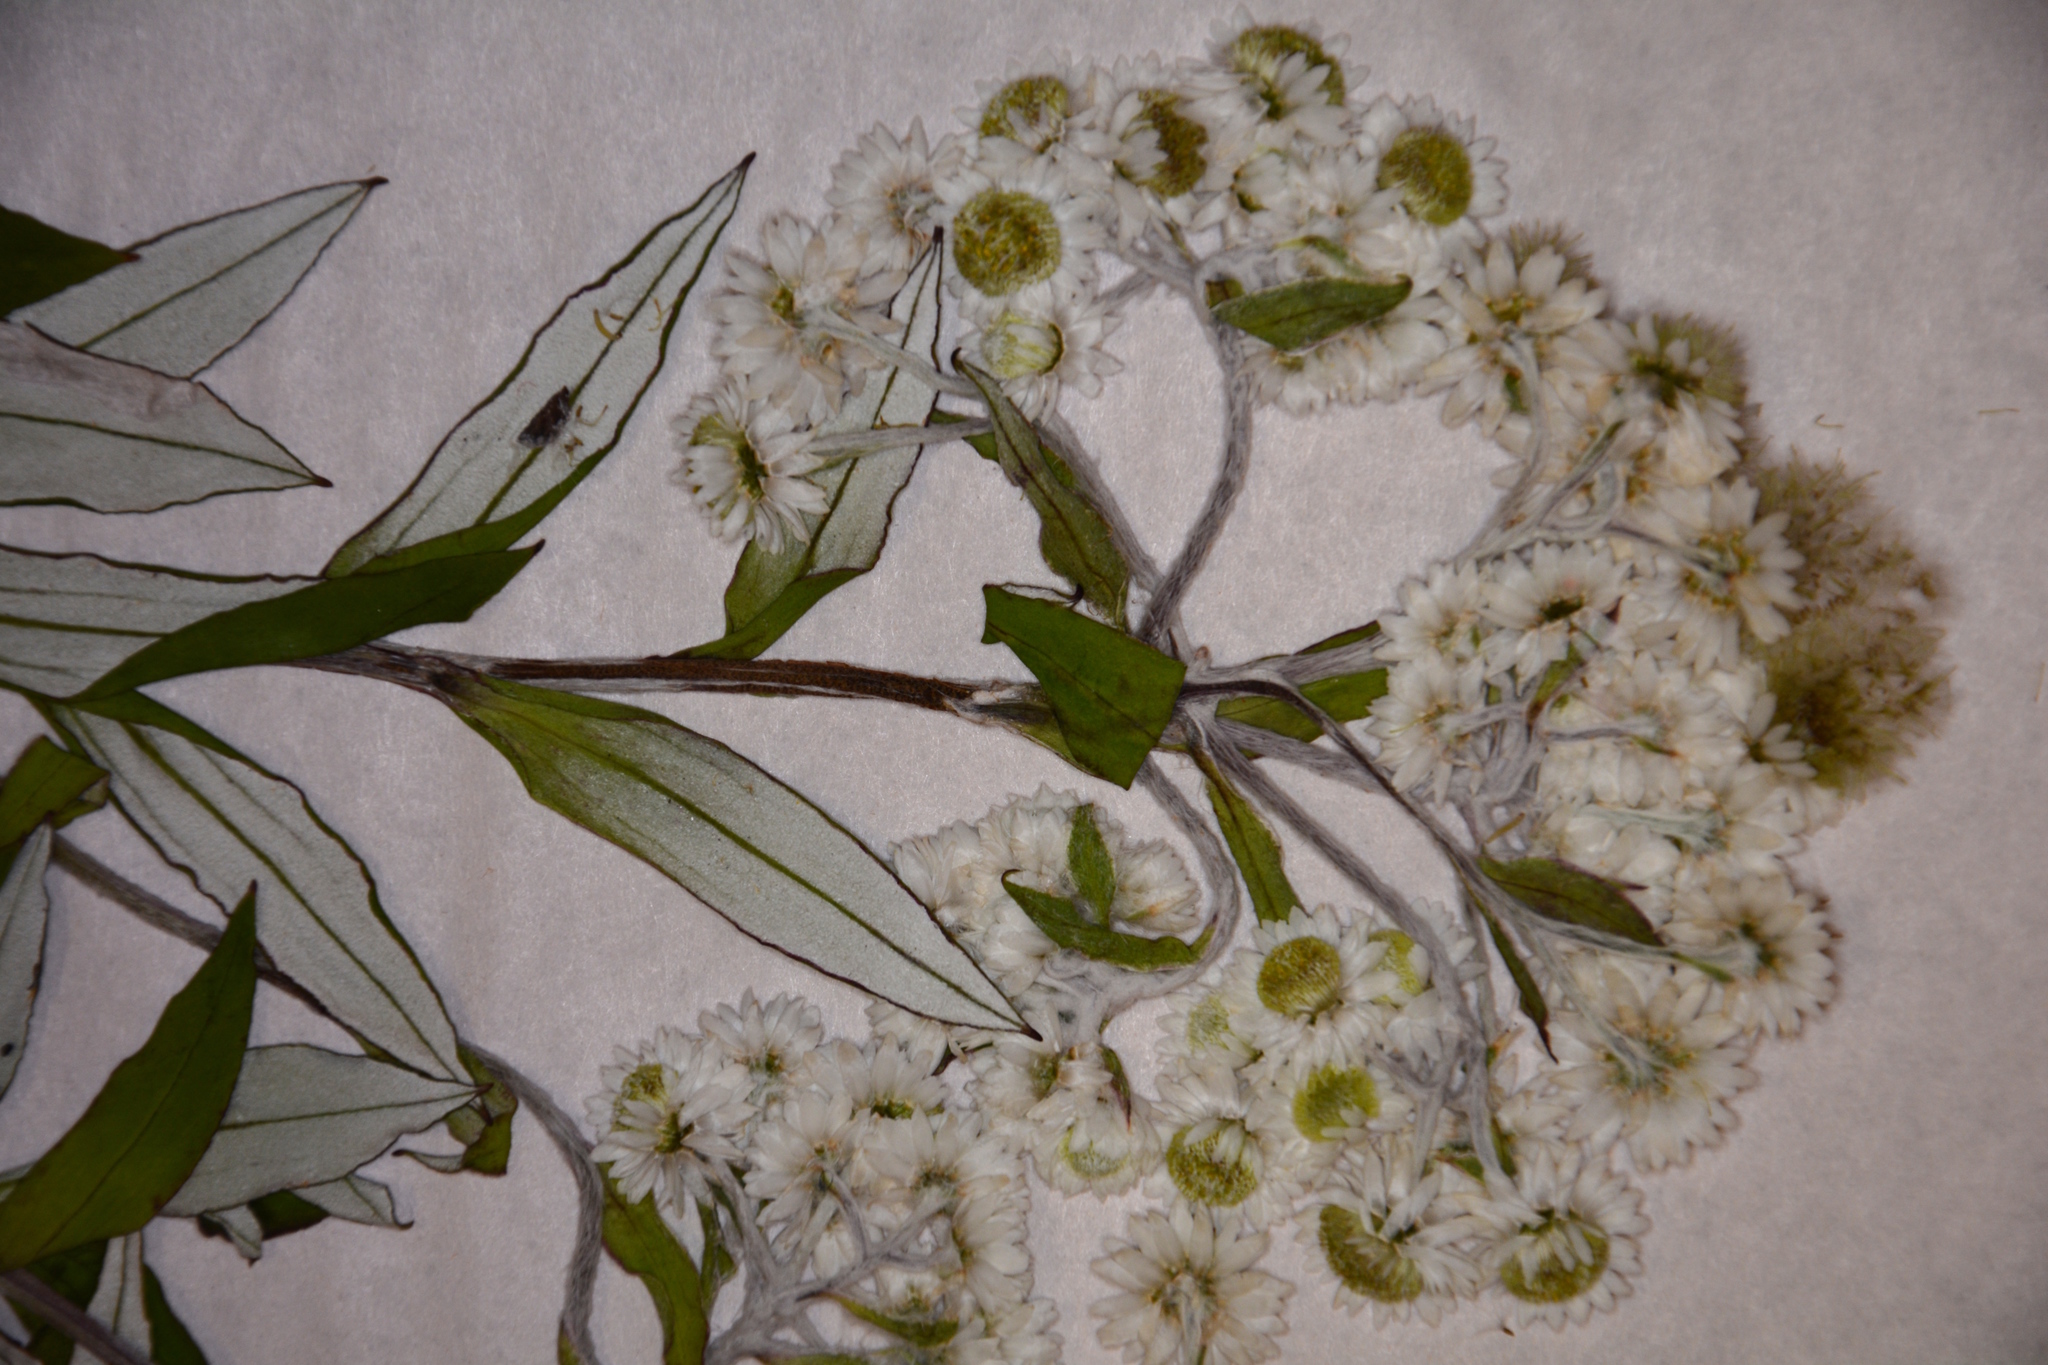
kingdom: Plantae
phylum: Tracheophyta
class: Magnoliopsida
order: Asterales
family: Asteraceae
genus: Anaphalioides
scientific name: Anaphalioides trinervis
